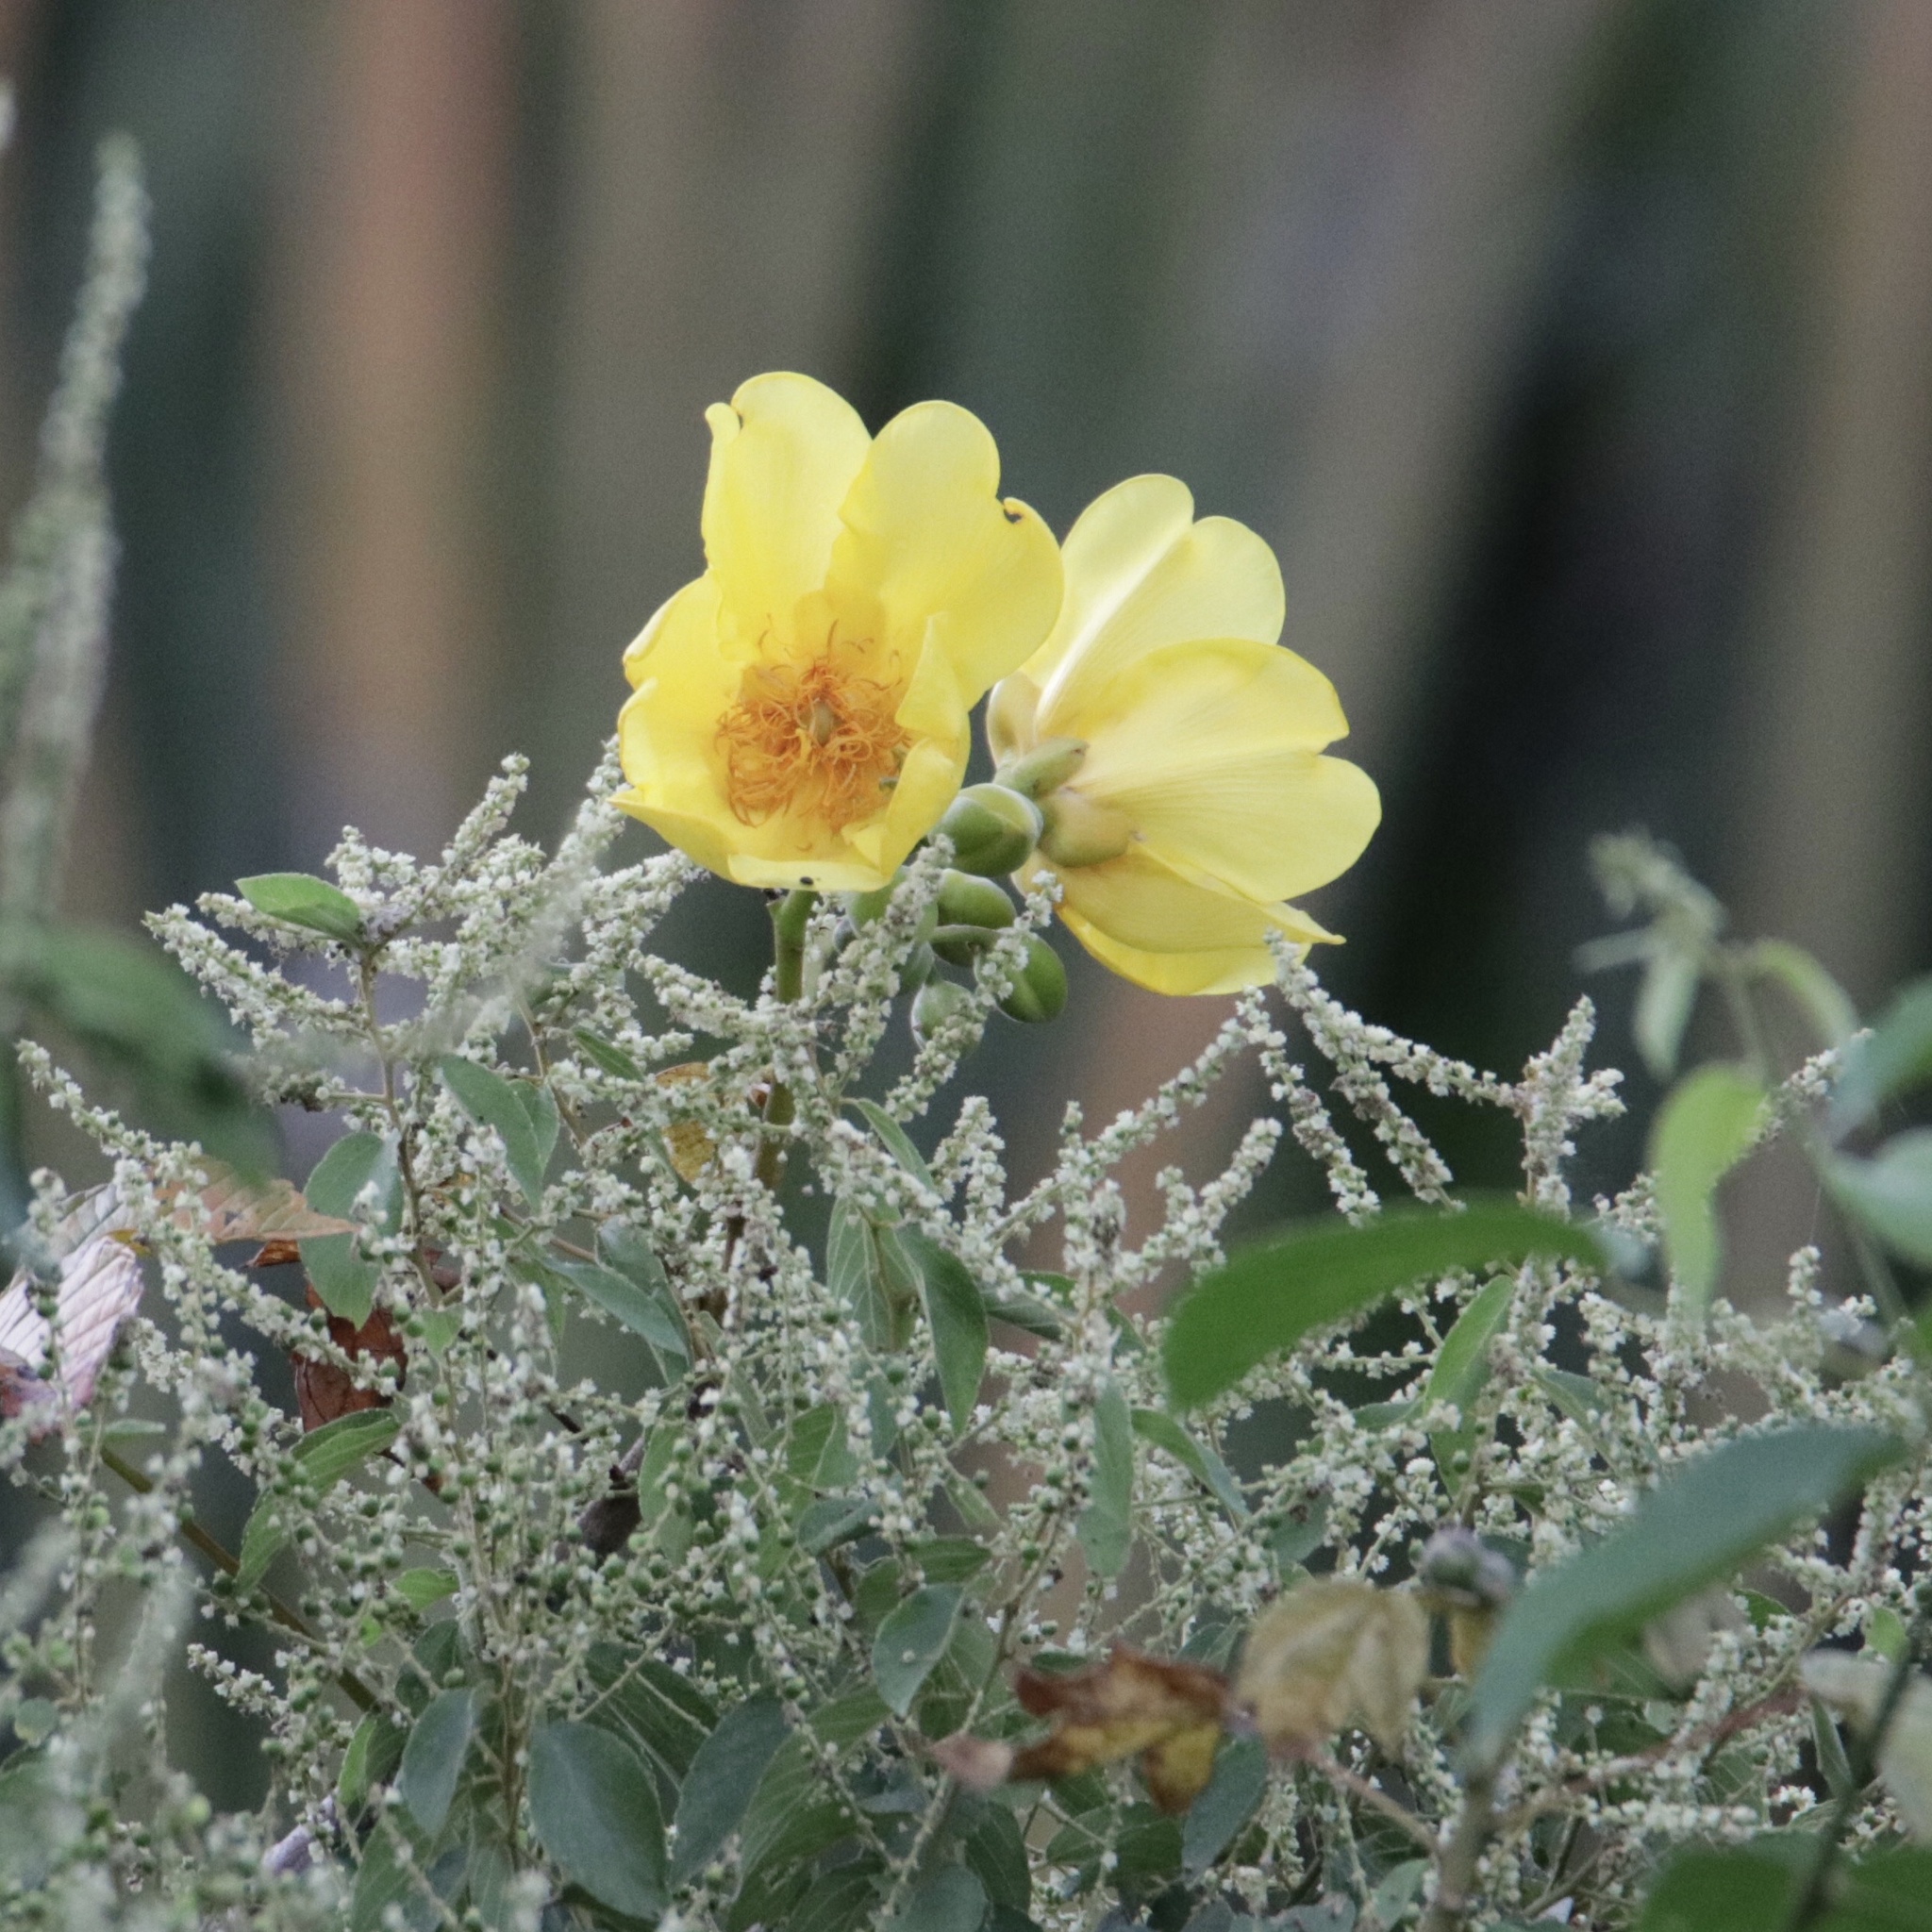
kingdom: Plantae
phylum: Tracheophyta
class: Magnoliopsida
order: Malvales
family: Cochlospermaceae
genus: Cochlospermum
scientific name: Cochlospermum vitifolium
